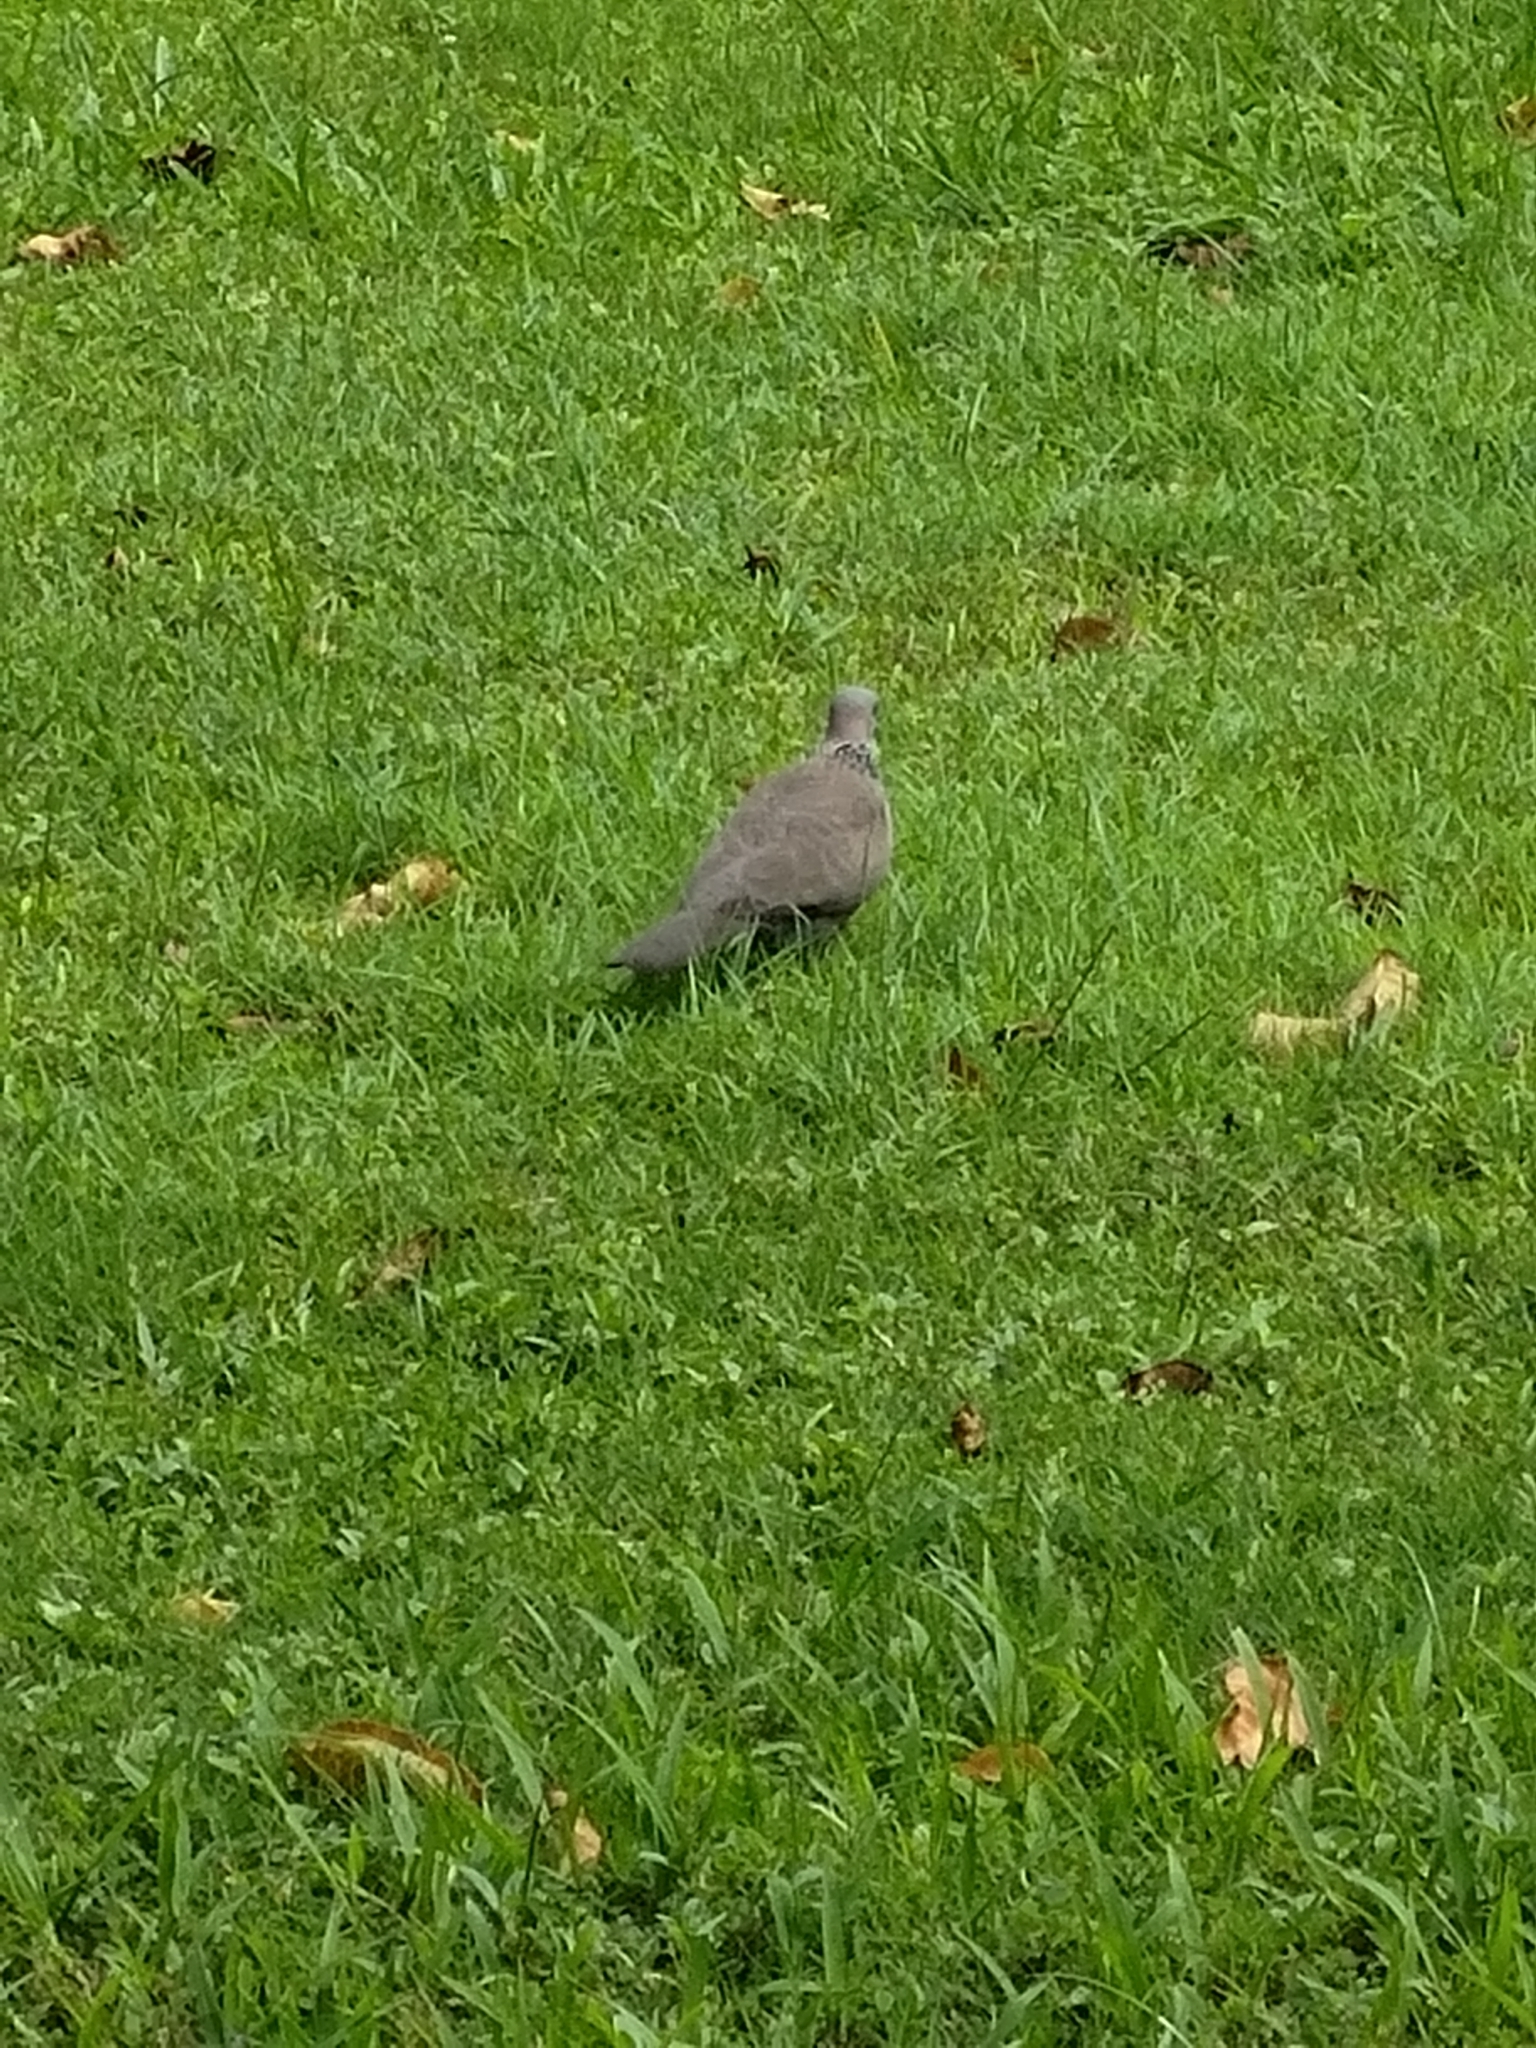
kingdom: Animalia
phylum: Chordata
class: Aves
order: Columbiformes
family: Columbidae
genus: Spilopelia
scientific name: Spilopelia chinensis
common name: Spotted dove
